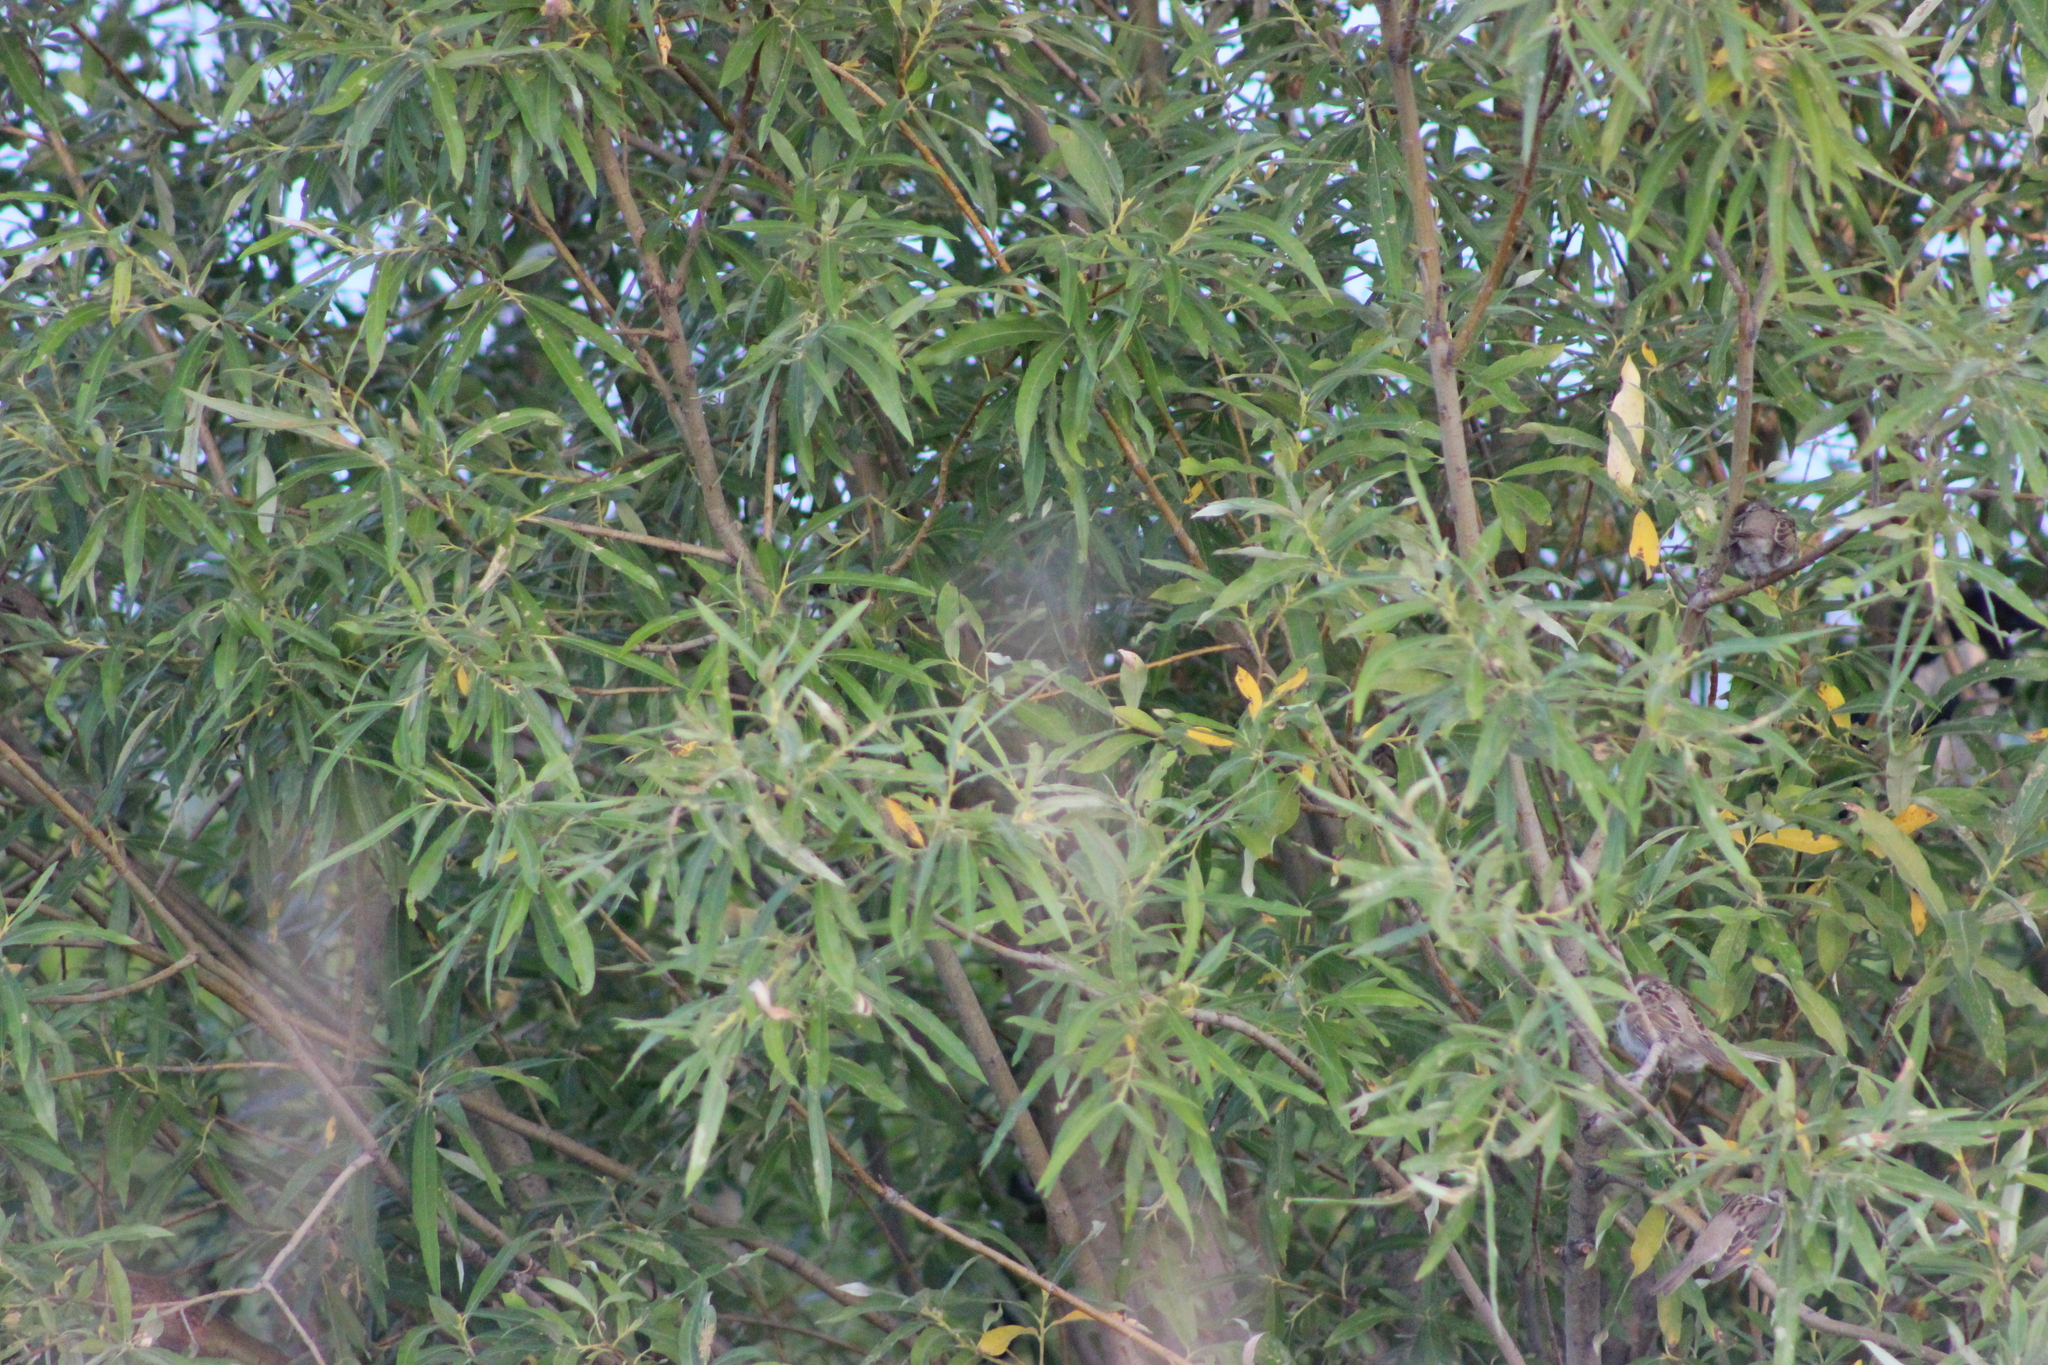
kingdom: Animalia
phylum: Chordata
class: Aves
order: Passeriformes
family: Passeridae
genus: Passer
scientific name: Passer montanus
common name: Eurasian tree sparrow
